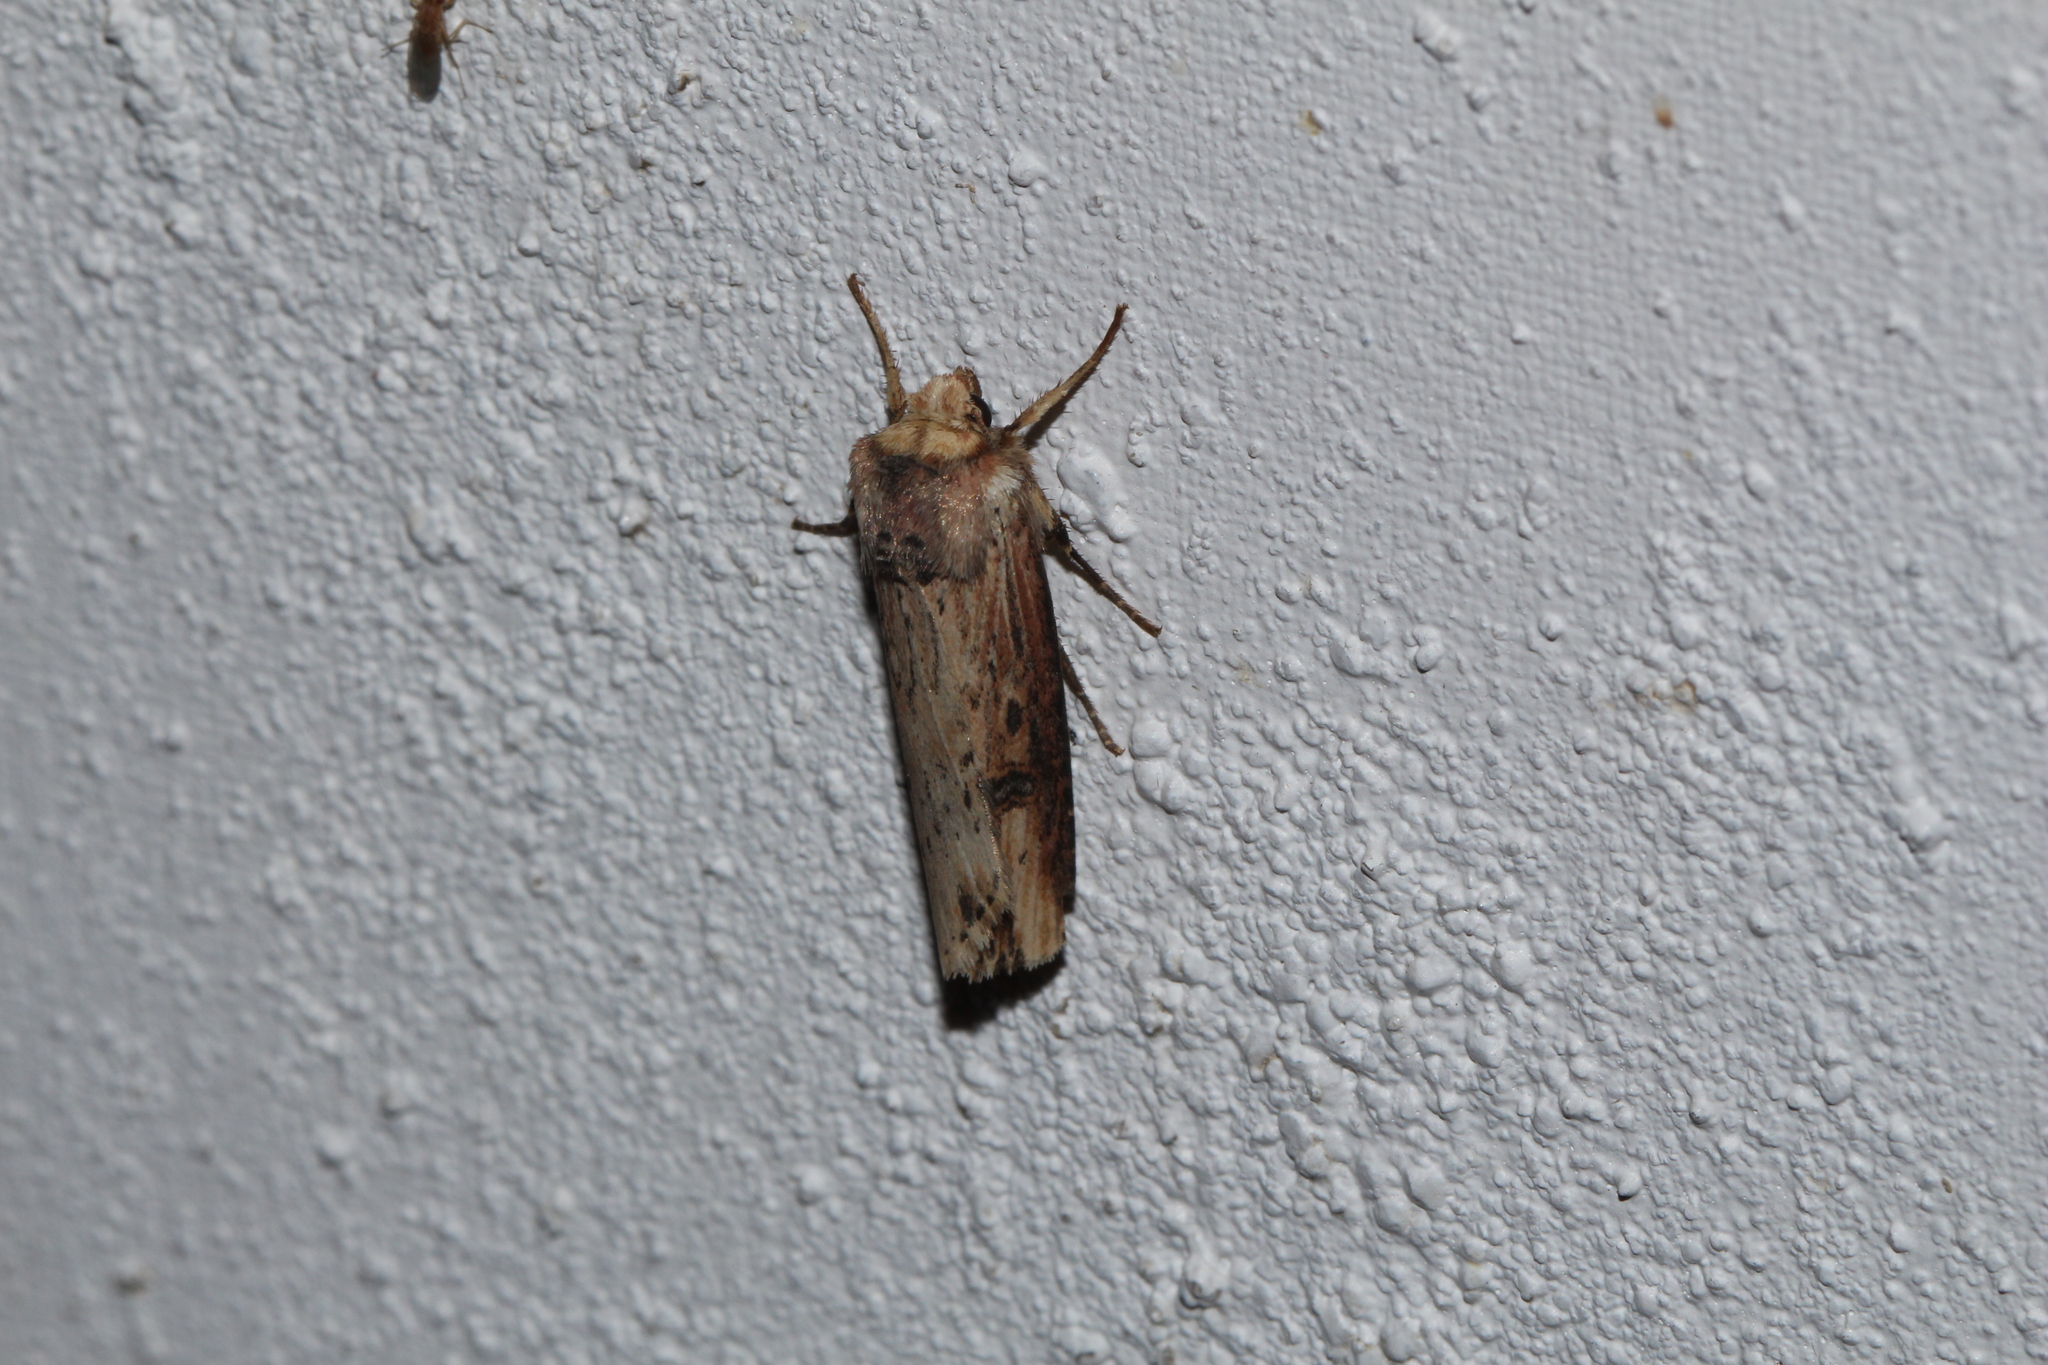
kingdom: Animalia
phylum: Arthropoda
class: Insecta
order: Lepidoptera
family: Noctuidae
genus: Axylia
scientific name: Axylia putris
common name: Flame
